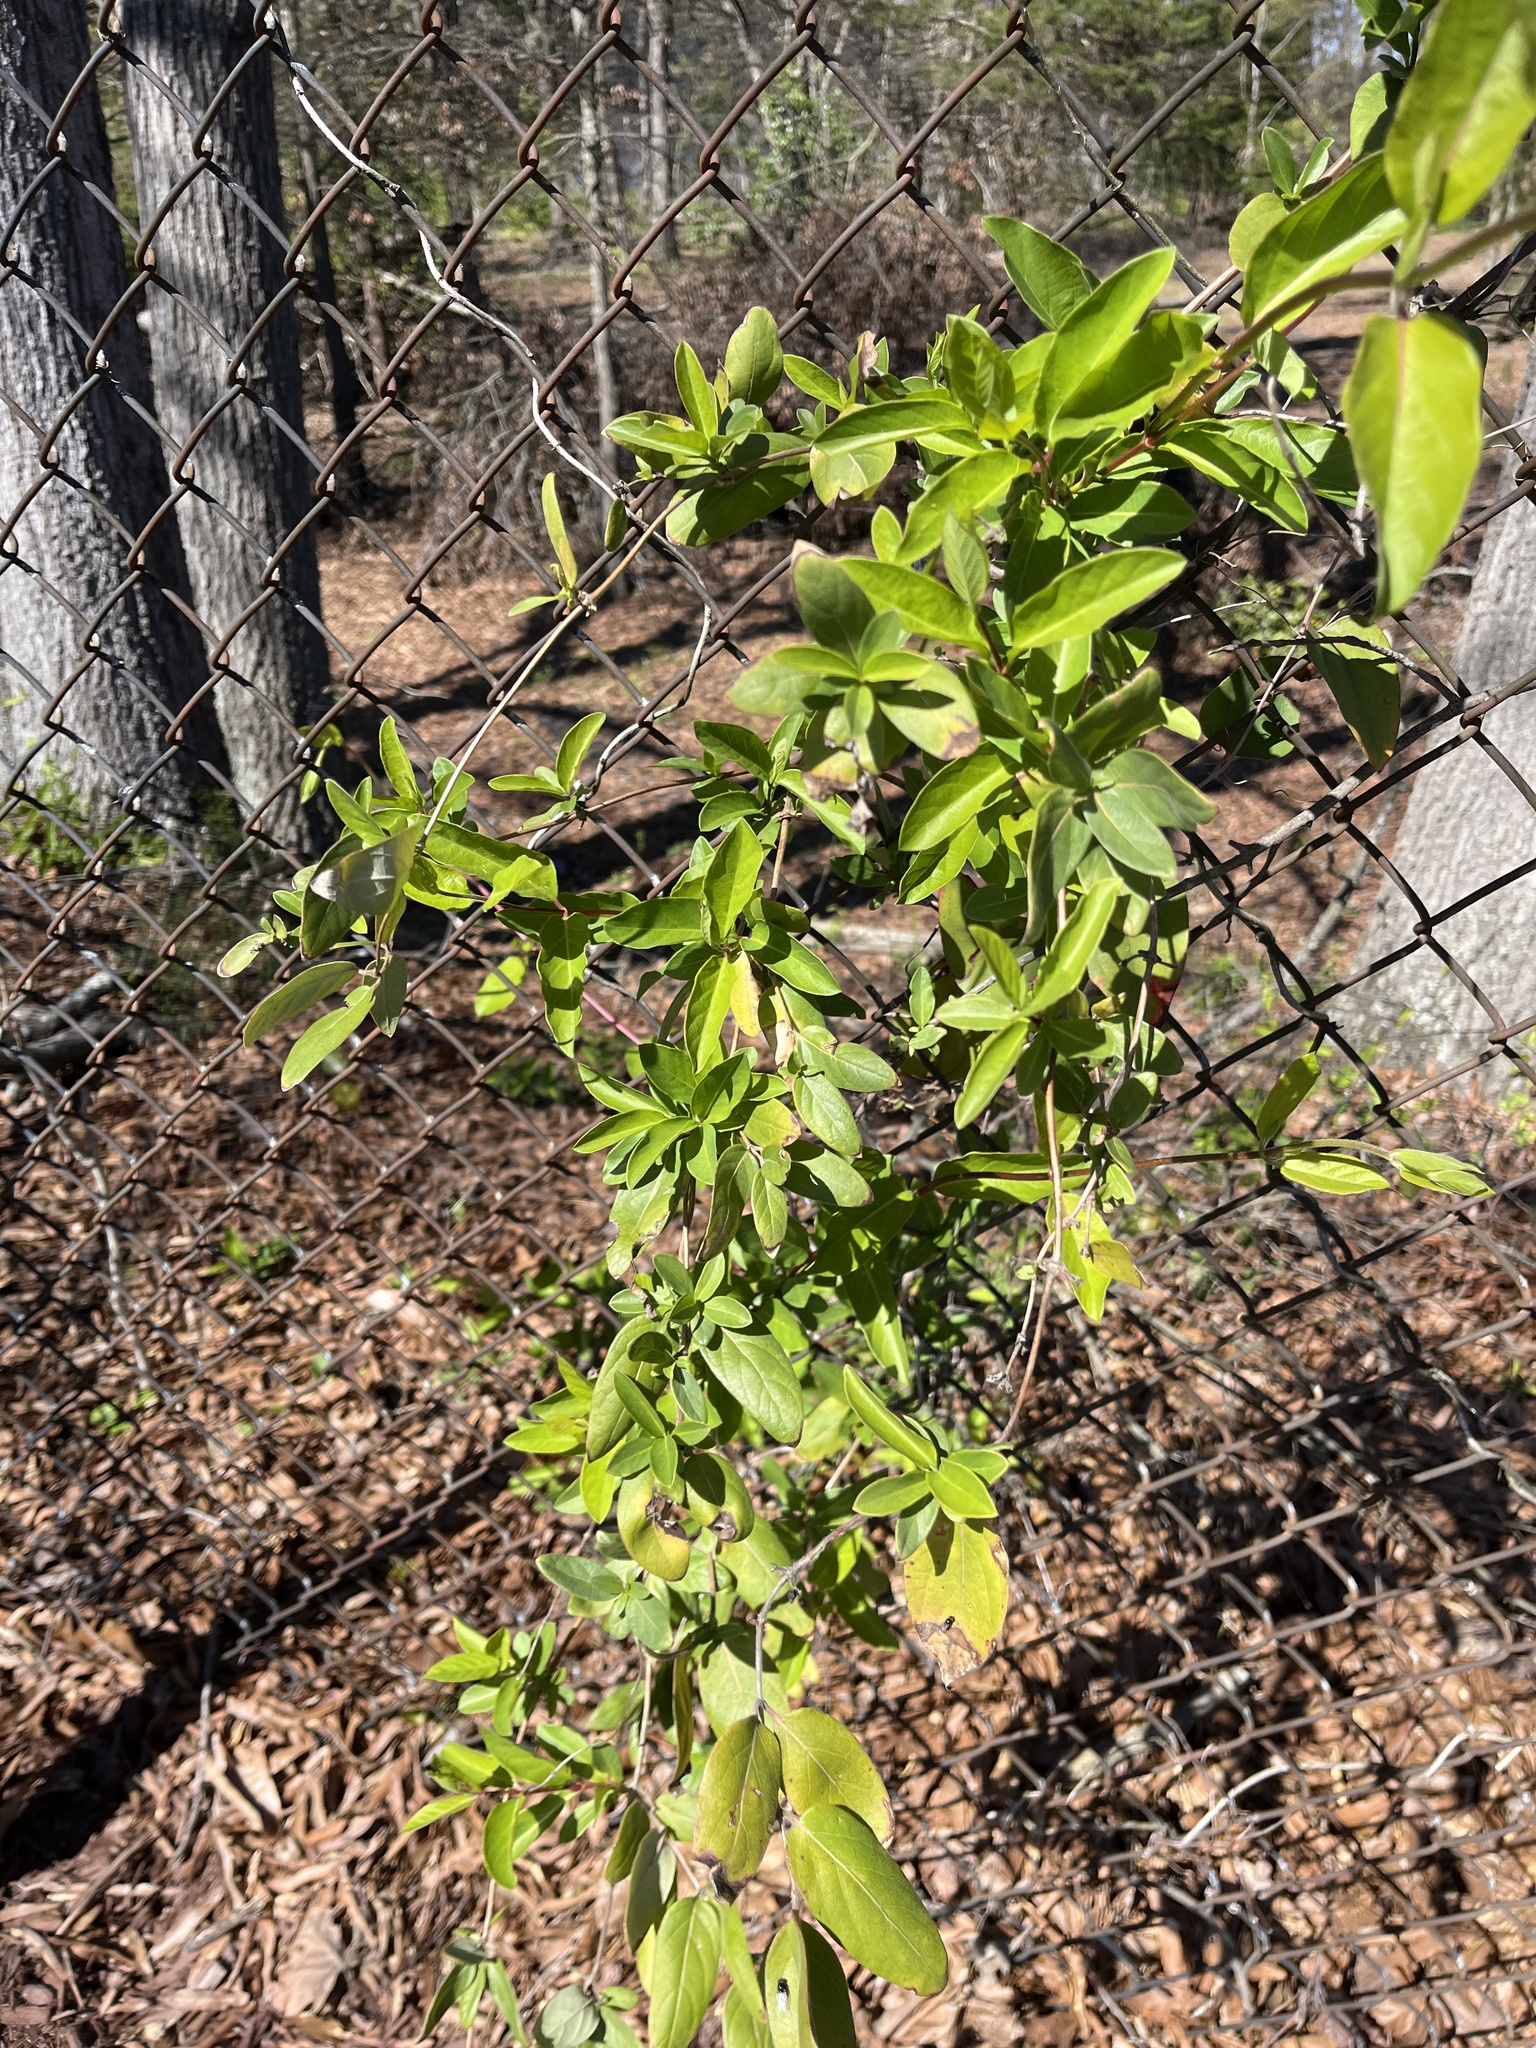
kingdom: Plantae
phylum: Tracheophyta
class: Magnoliopsida
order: Dipsacales
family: Caprifoliaceae
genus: Lonicera
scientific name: Lonicera japonica
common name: Japanese honeysuckle
